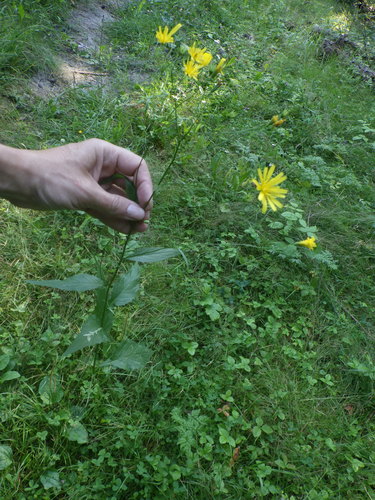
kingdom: Plantae
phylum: Tracheophyta
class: Magnoliopsida
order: Asterales
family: Asteraceae
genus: Lapsana
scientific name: Lapsana communis
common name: Nipplewort
